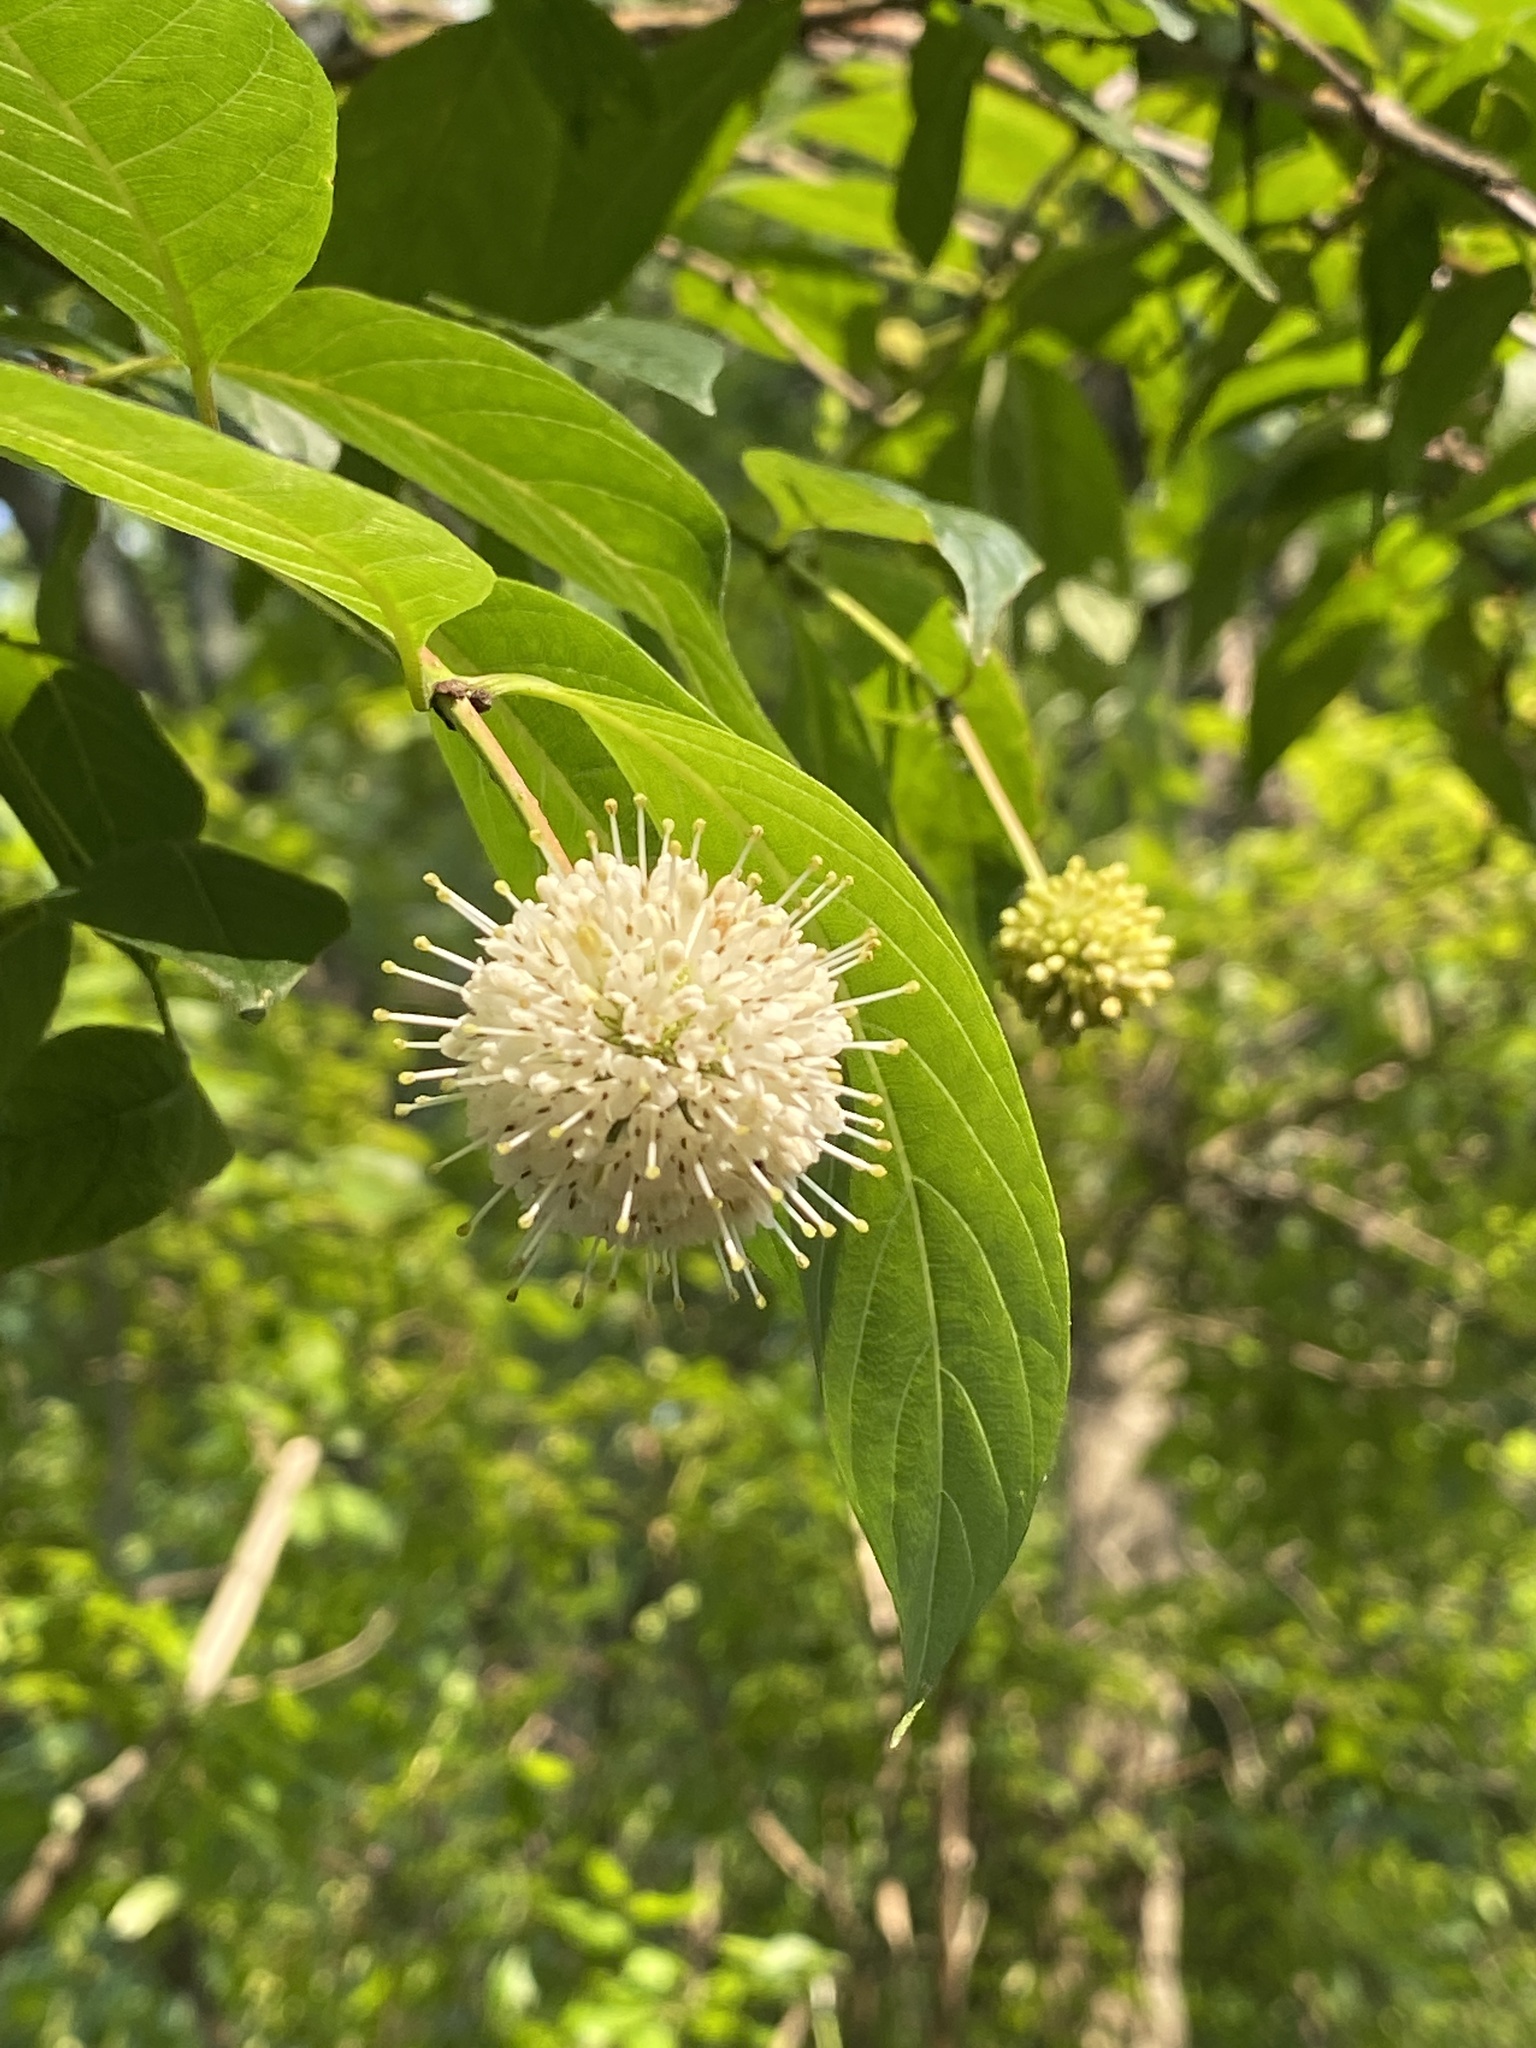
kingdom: Plantae
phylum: Tracheophyta
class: Magnoliopsida
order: Gentianales
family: Rubiaceae
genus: Cephalanthus
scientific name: Cephalanthus occidentalis
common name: Button-willow
